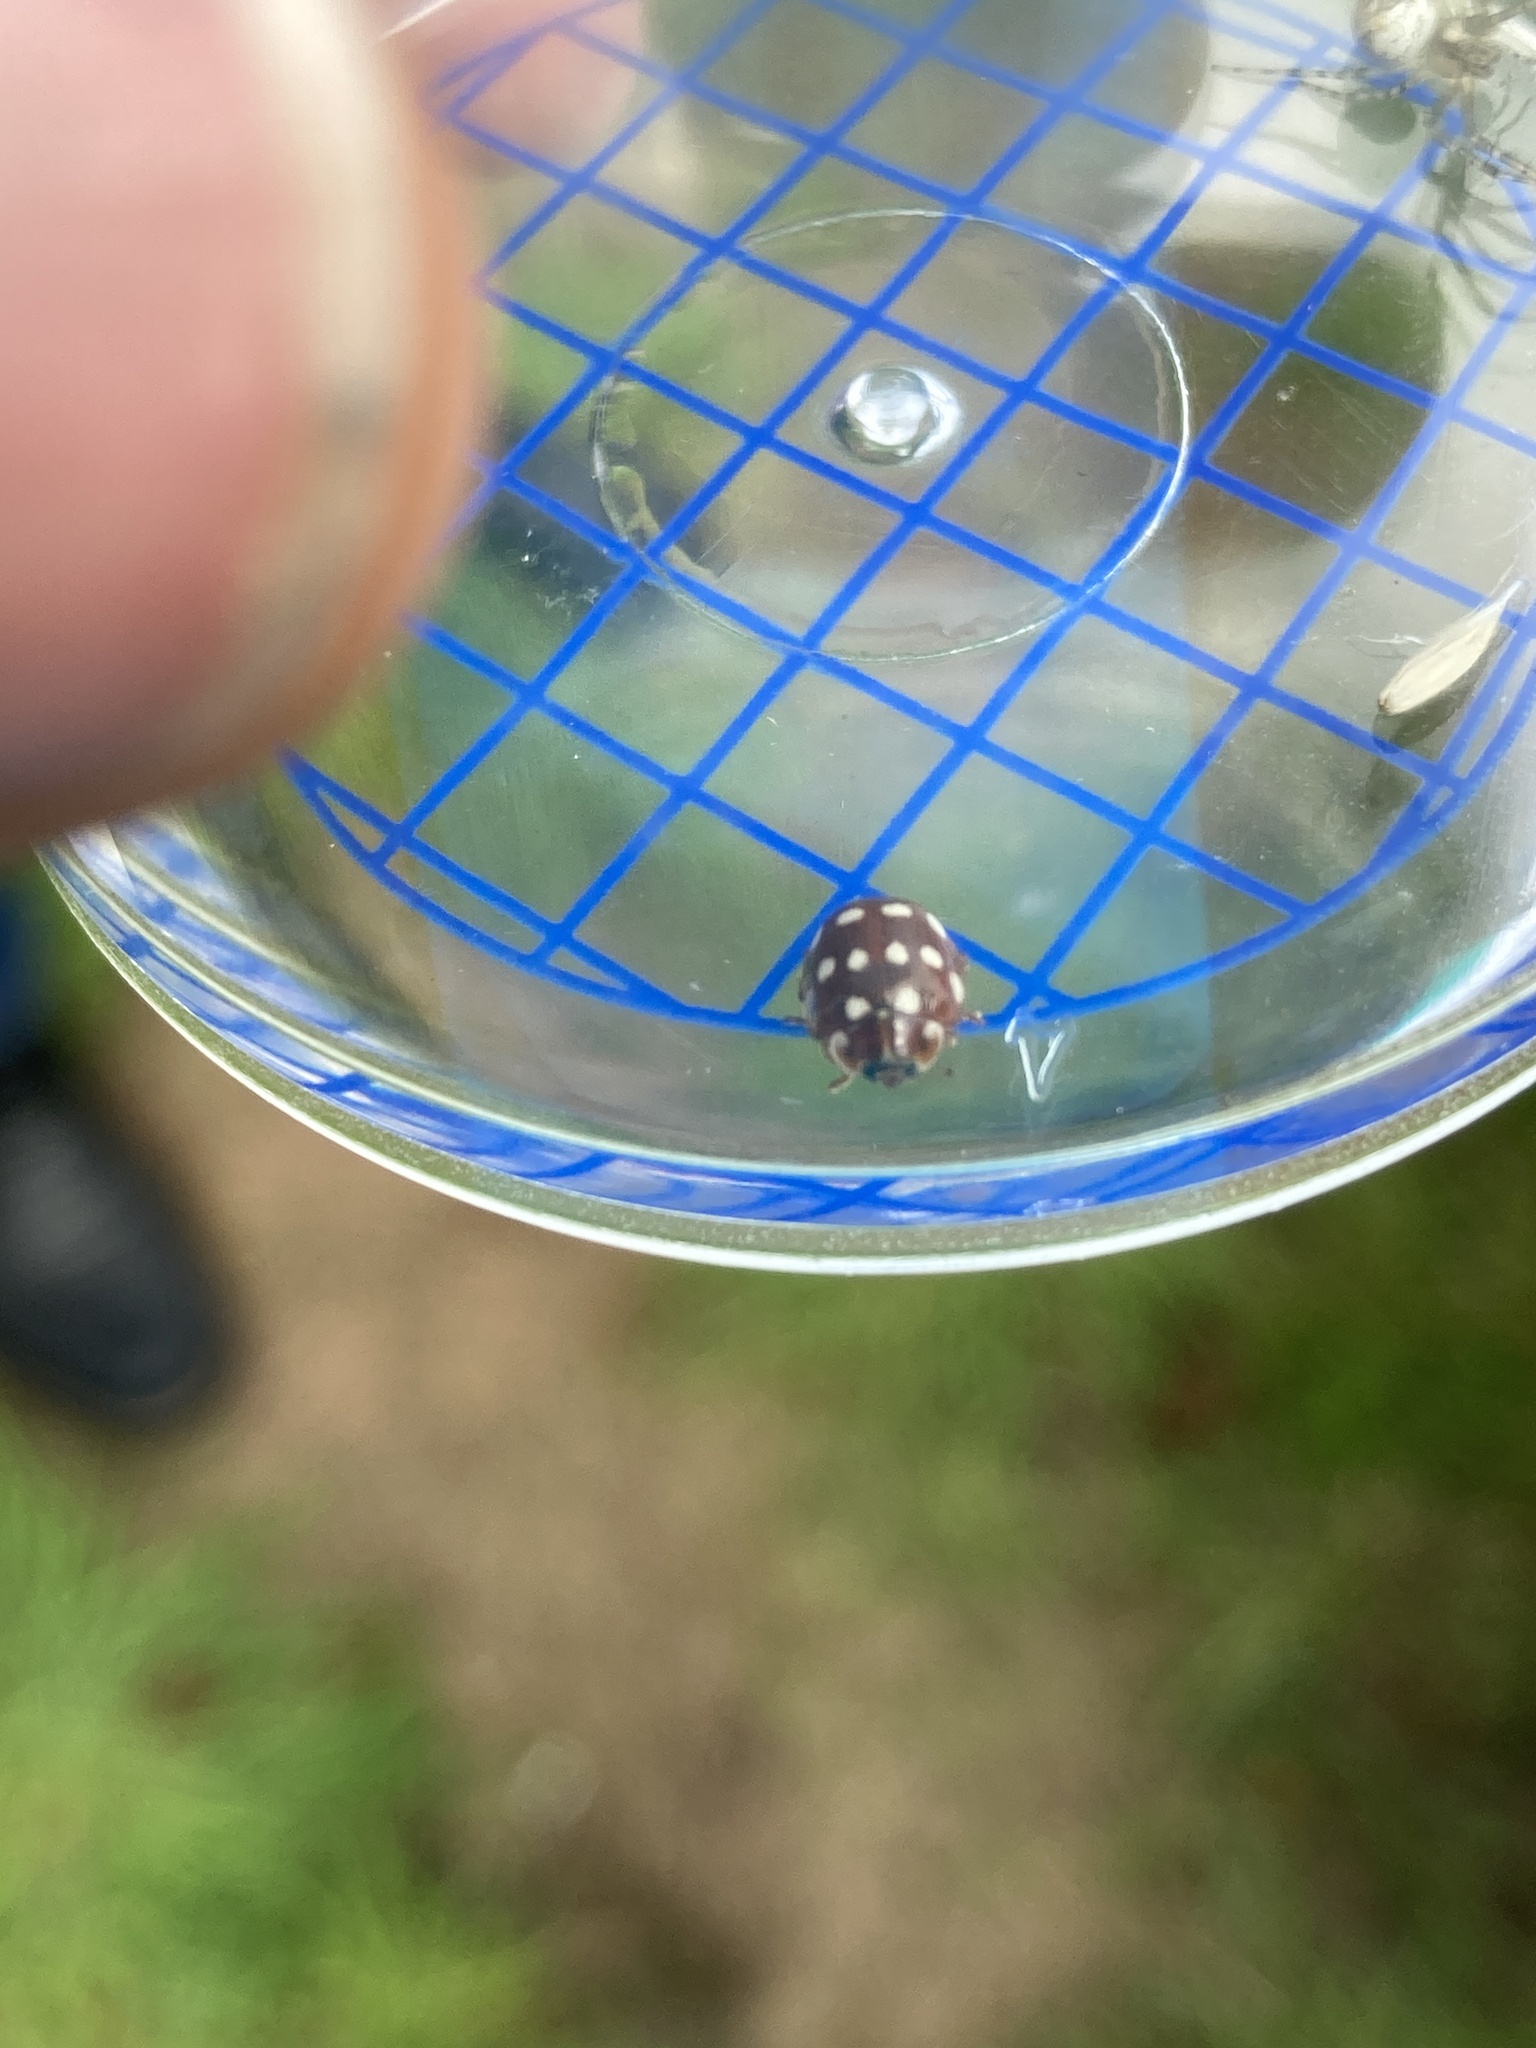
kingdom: Animalia
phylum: Arthropoda
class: Insecta
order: Coleoptera
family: Coccinellidae
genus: Calvia
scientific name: Calvia quatuordecimguttata
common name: Cream-spot ladybird
